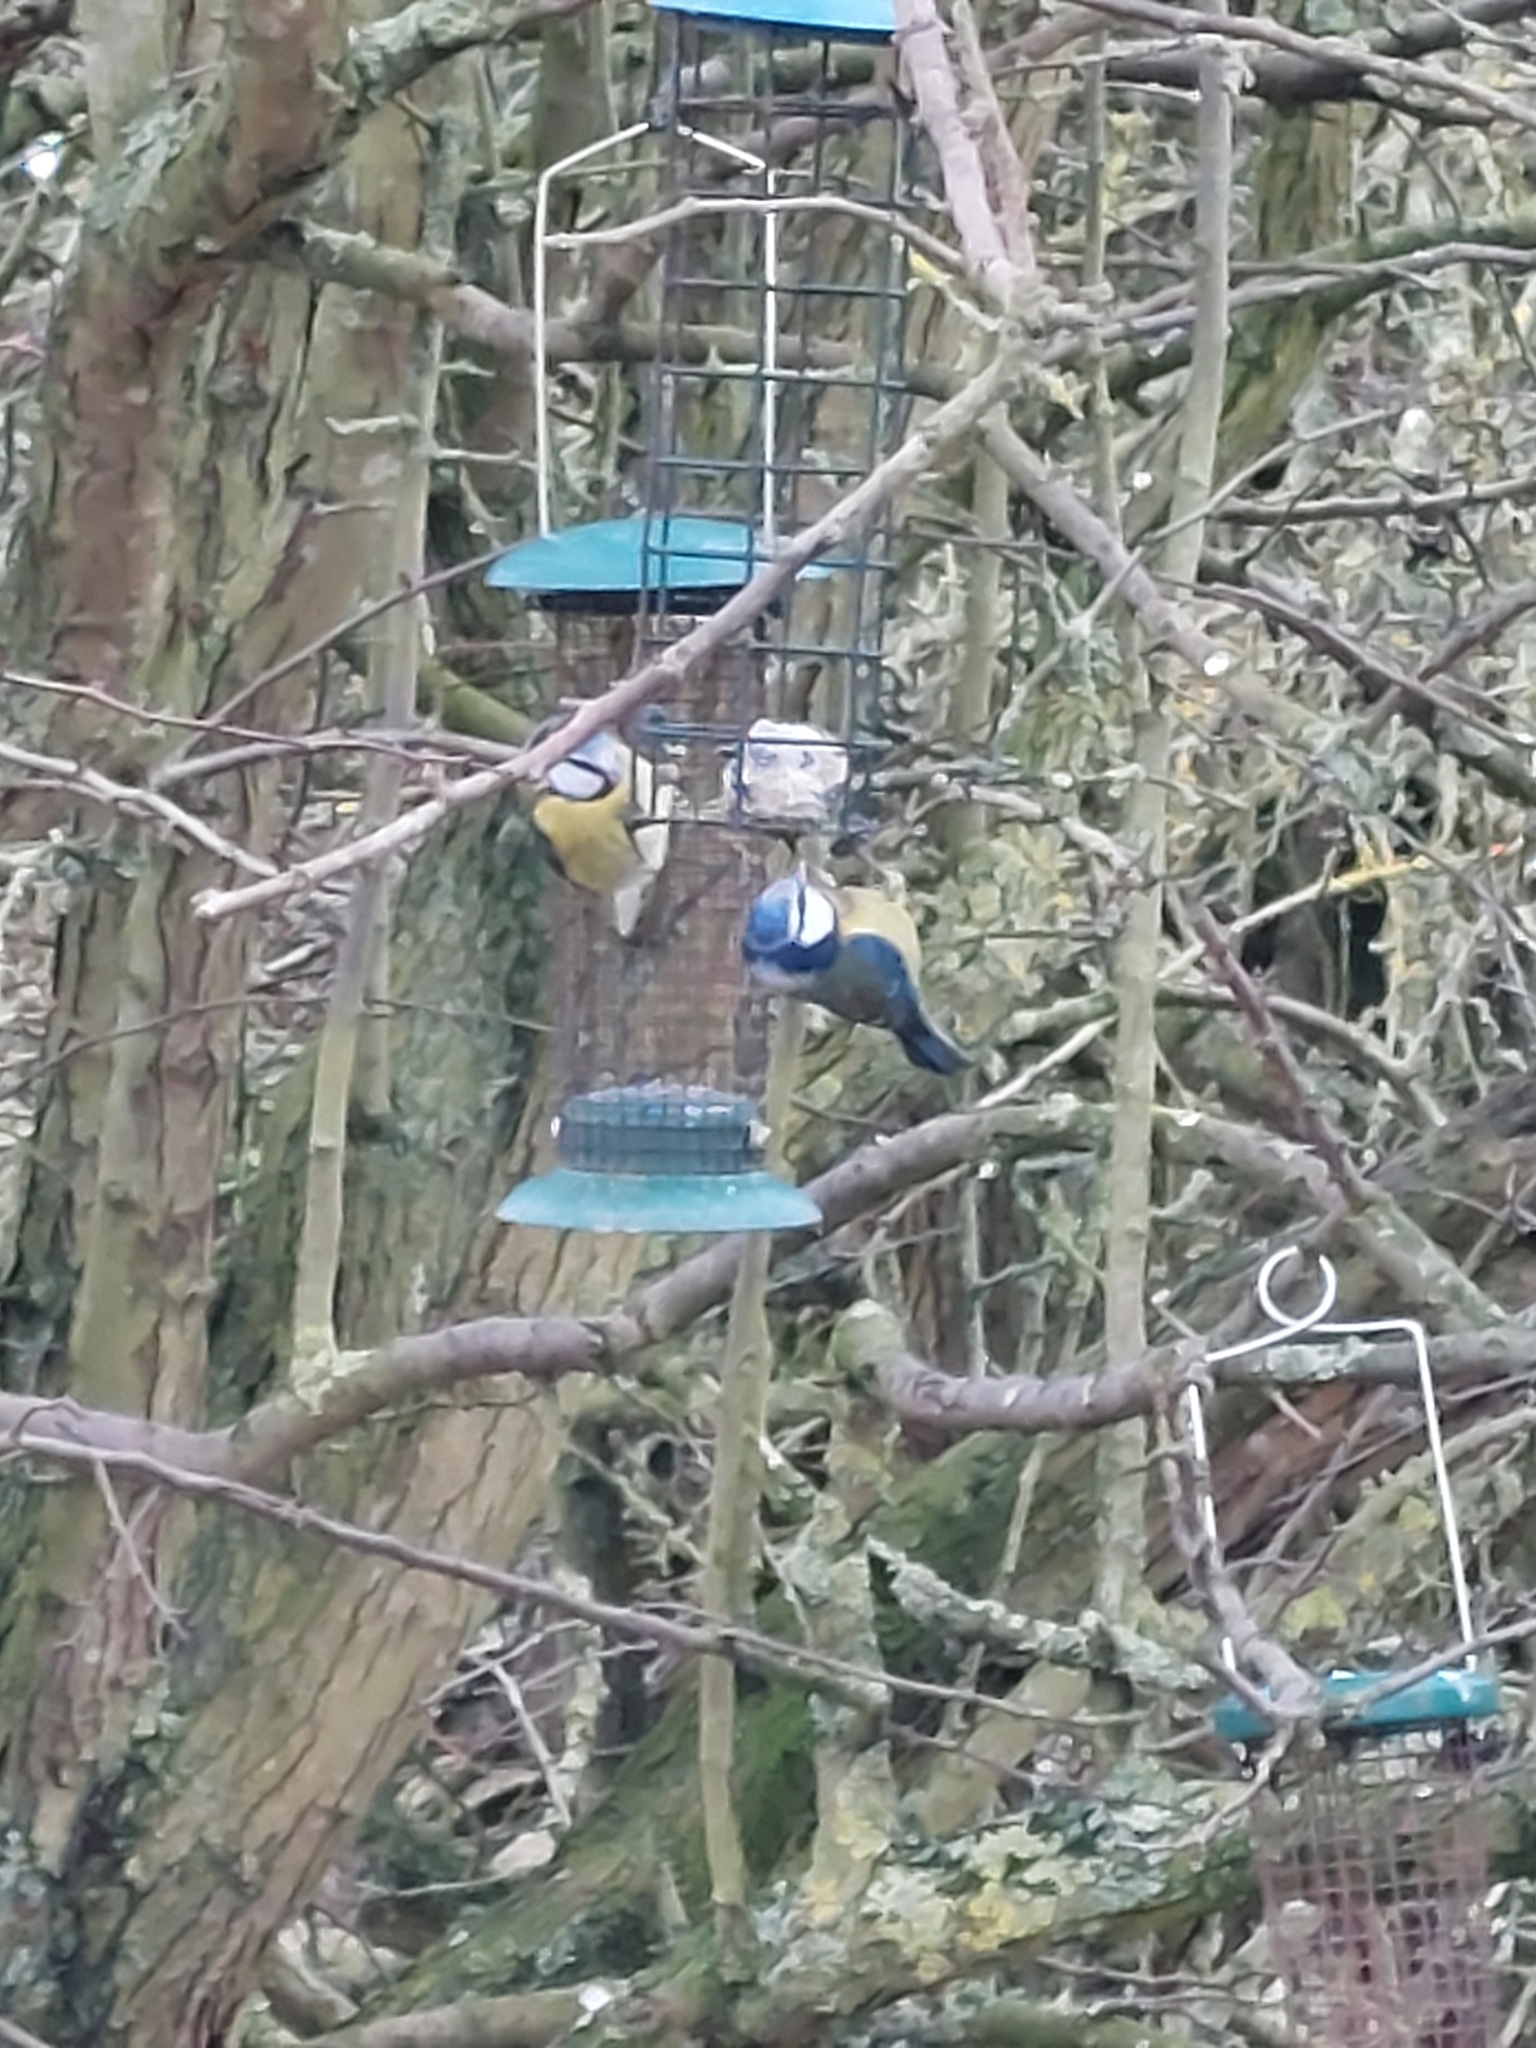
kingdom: Animalia
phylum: Chordata
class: Aves
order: Passeriformes
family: Paridae
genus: Cyanistes
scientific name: Cyanistes caeruleus
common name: Eurasian blue tit
